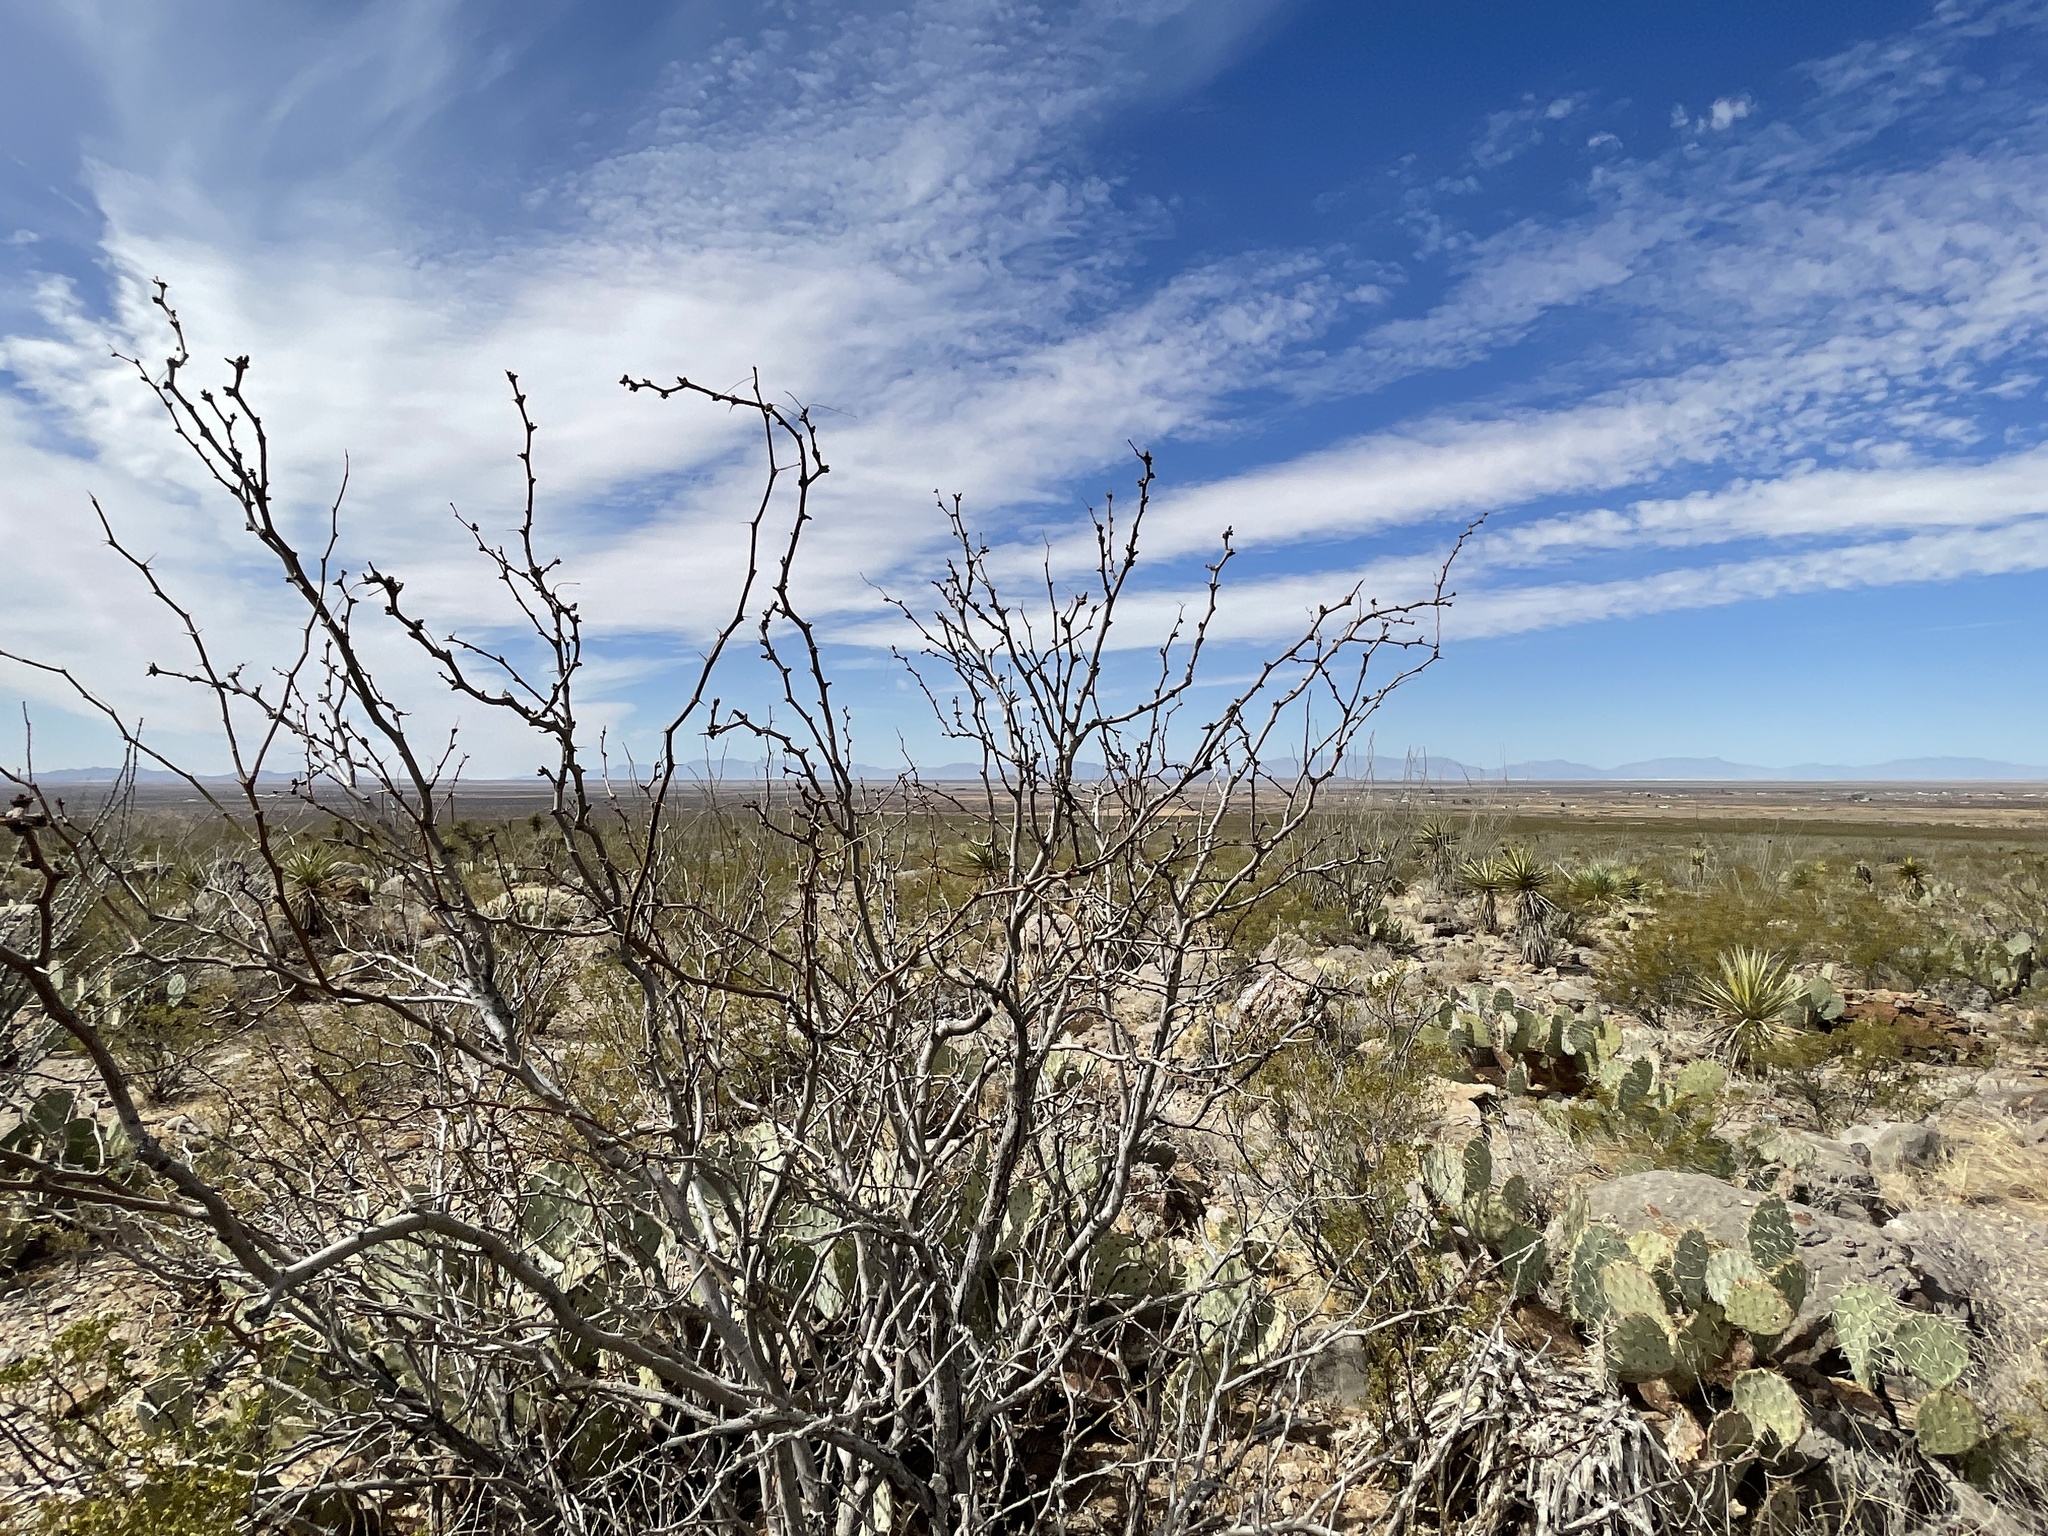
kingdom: Plantae
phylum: Tracheophyta
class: Magnoliopsida
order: Fabales
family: Fabaceae
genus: Prosopis
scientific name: Prosopis glandulosa
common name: Honey mesquite
